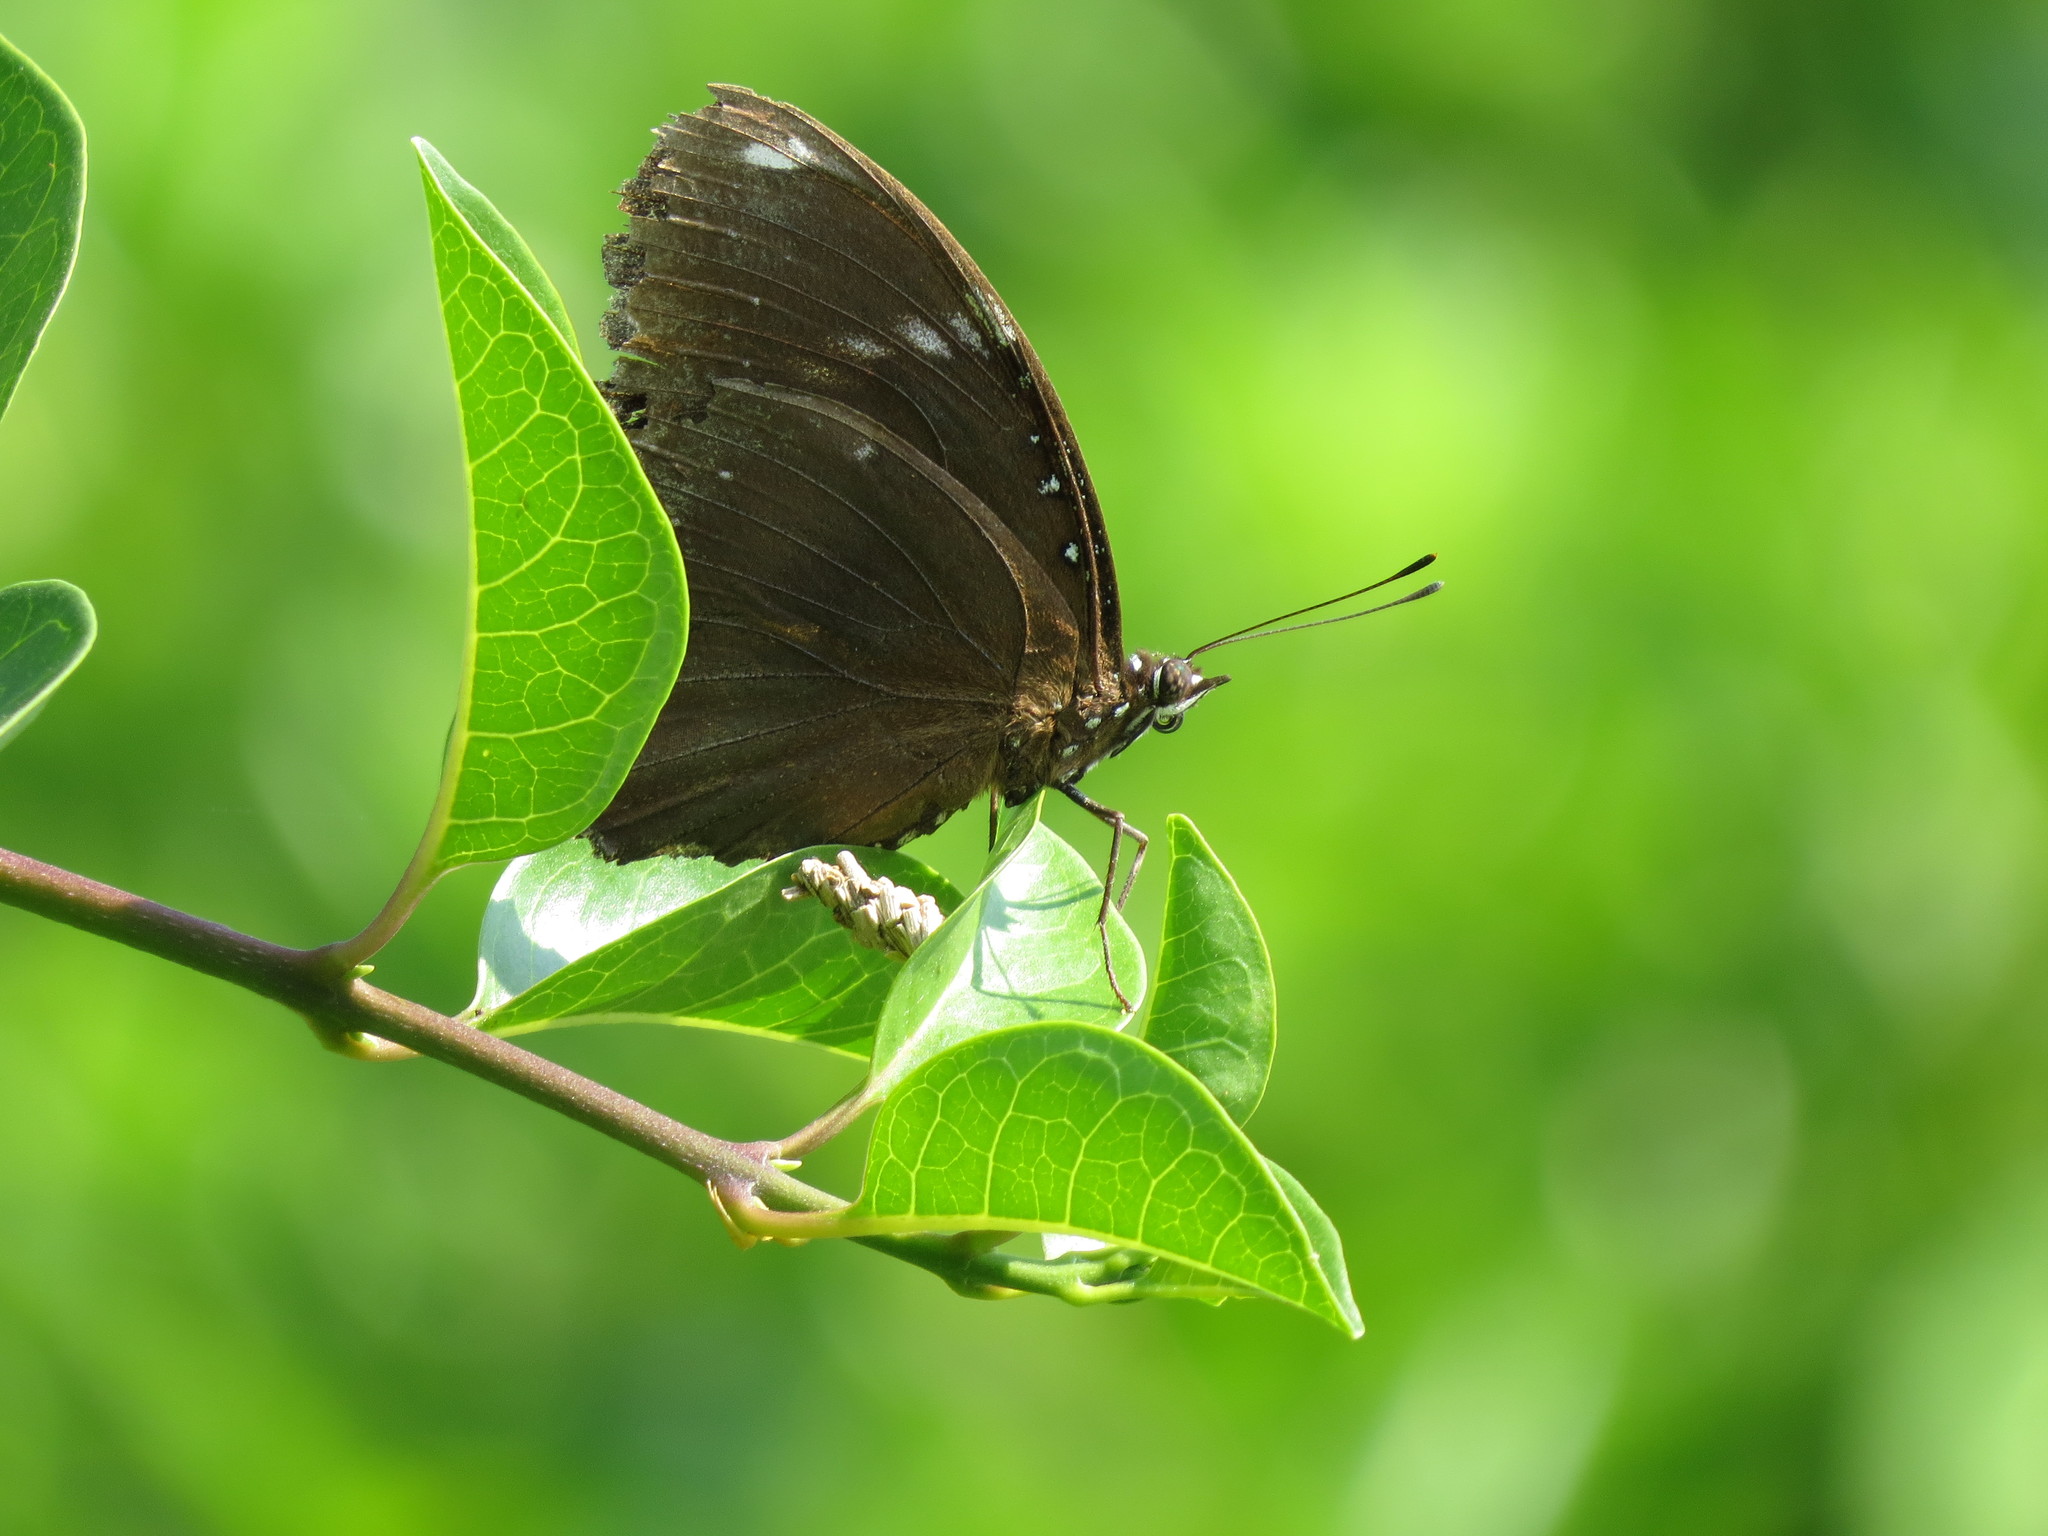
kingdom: Animalia
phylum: Arthropoda
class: Insecta
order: Lepidoptera
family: Nymphalidae
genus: Hypolimnas
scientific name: Hypolimnas bolina
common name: Great eggfly
